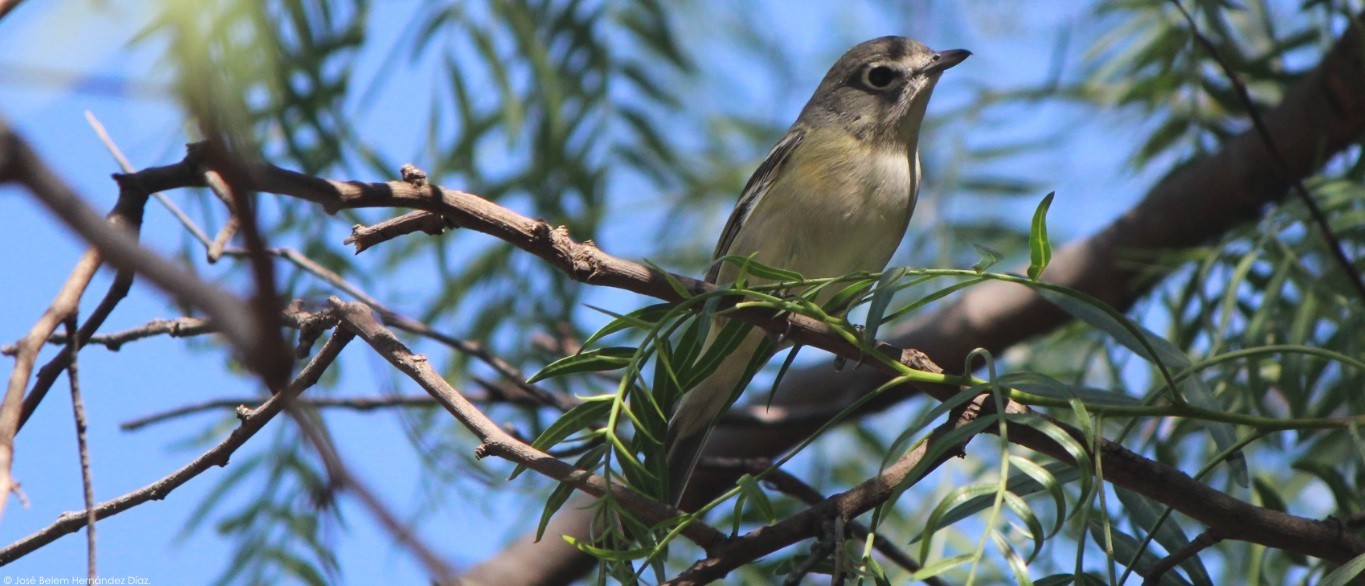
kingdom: Animalia
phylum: Chordata
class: Aves
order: Passeriformes
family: Vireonidae
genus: Vireo
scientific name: Vireo cassinii
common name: Cassin's vireo
